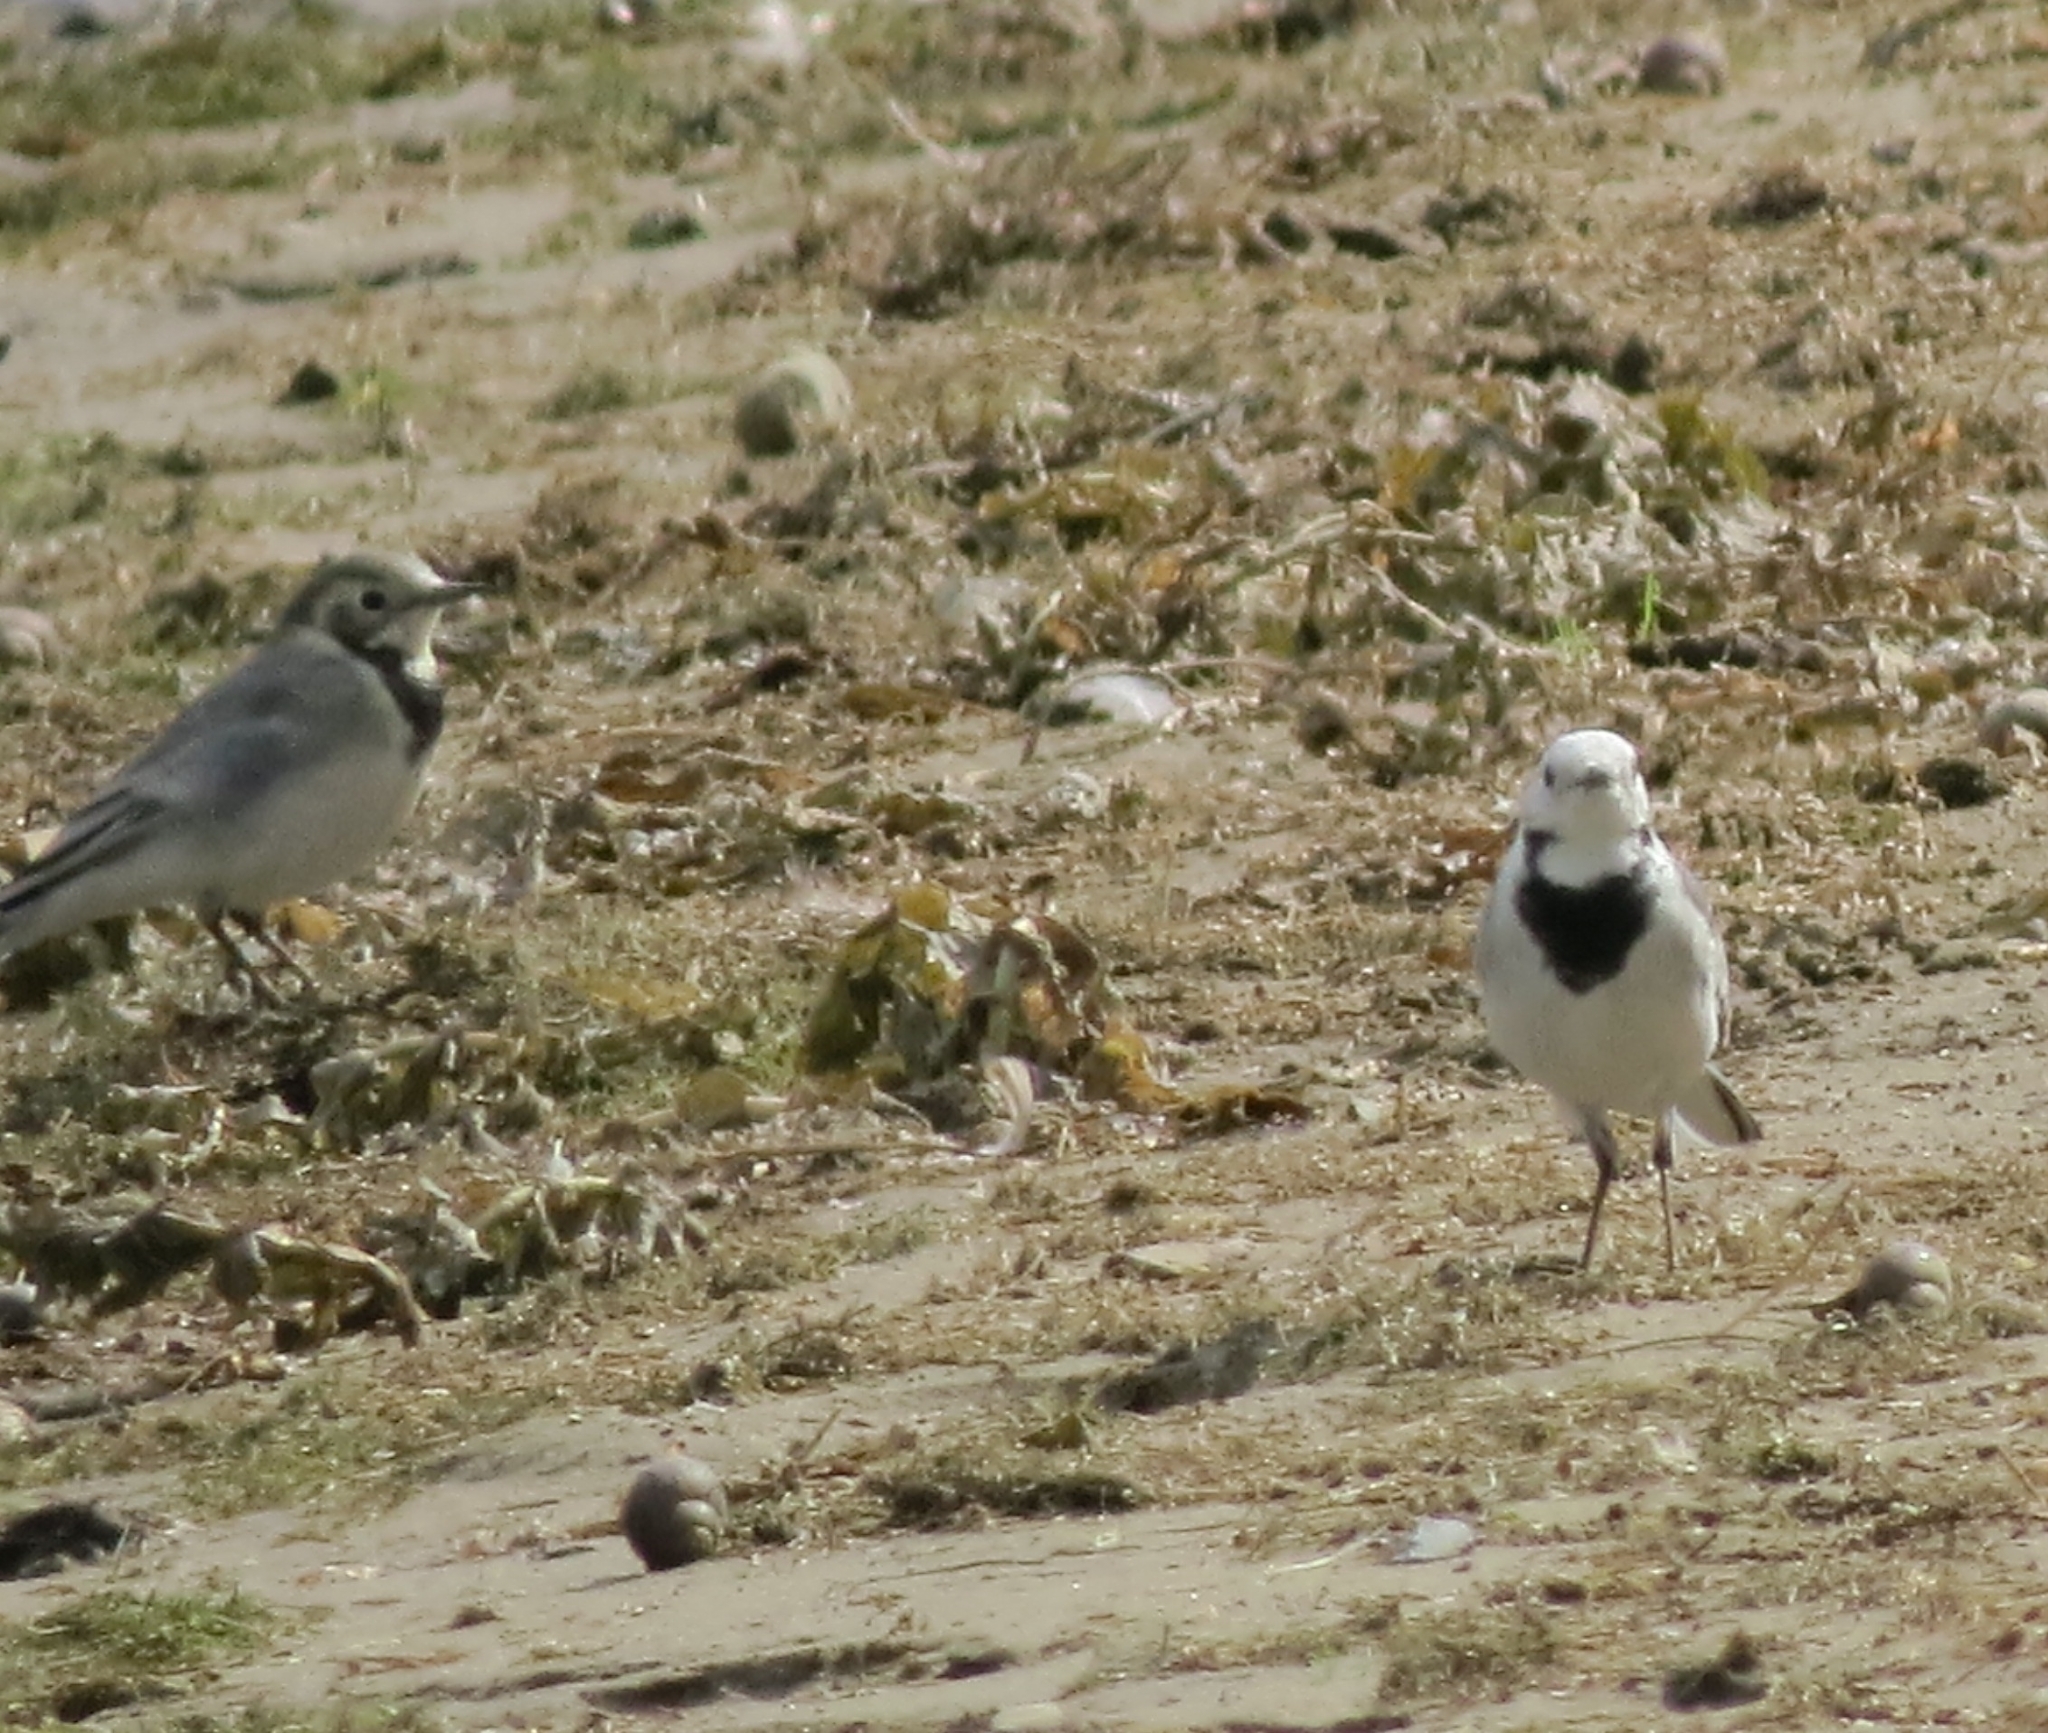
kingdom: Animalia
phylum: Chordata
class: Aves
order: Passeriformes
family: Motacillidae
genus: Motacilla
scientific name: Motacilla alba
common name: White wagtail
